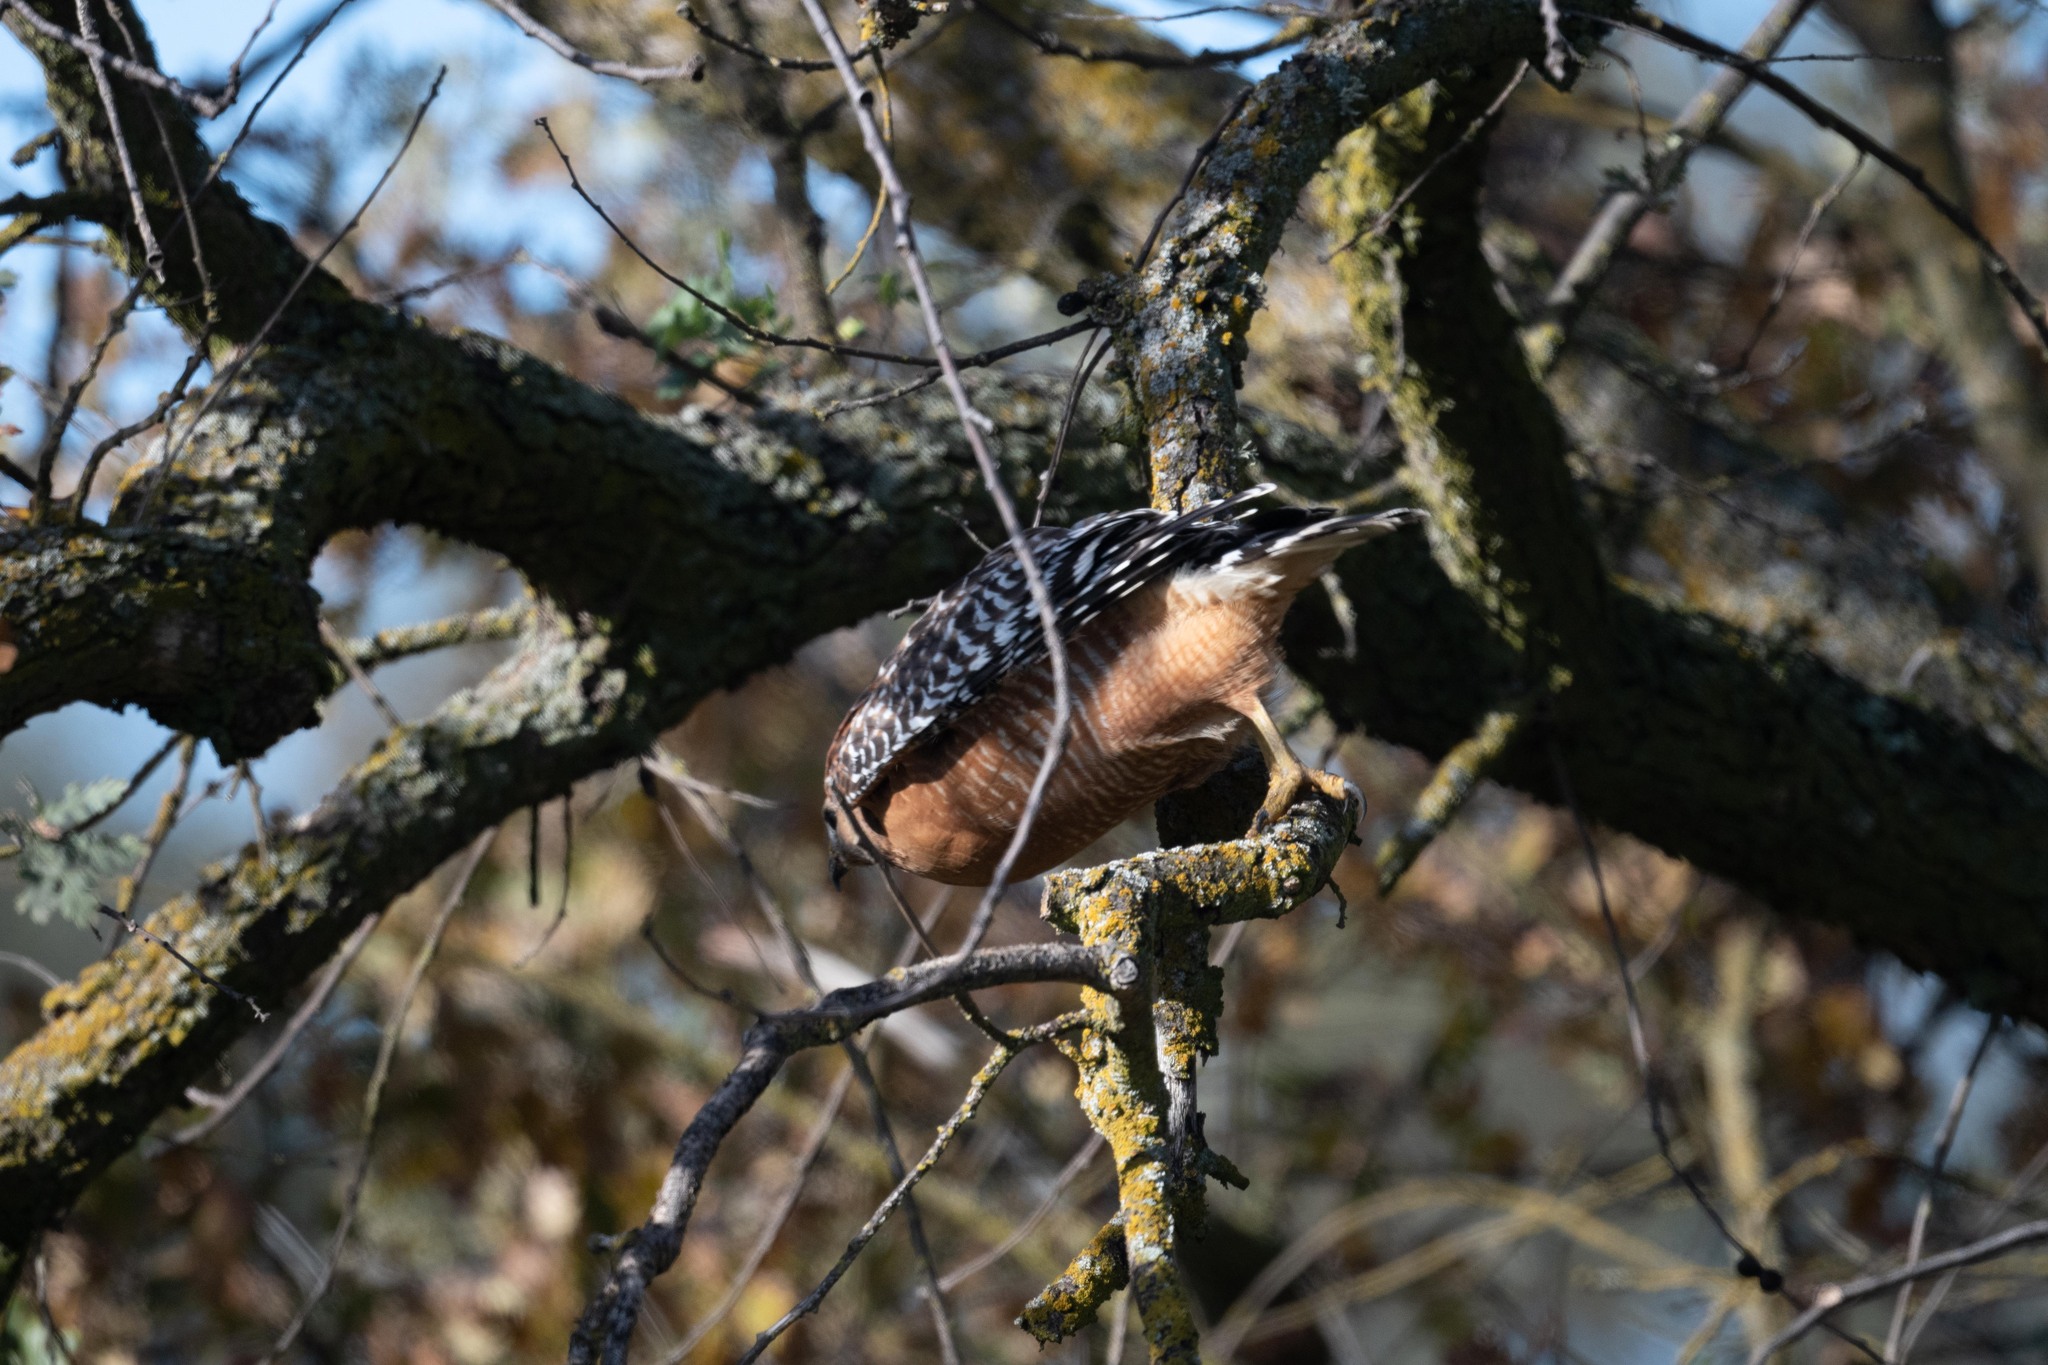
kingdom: Animalia
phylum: Chordata
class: Aves
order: Accipitriformes
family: Accipitridae
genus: Buteo
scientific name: Buteo lineatus
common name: Red-shouldered hawk
